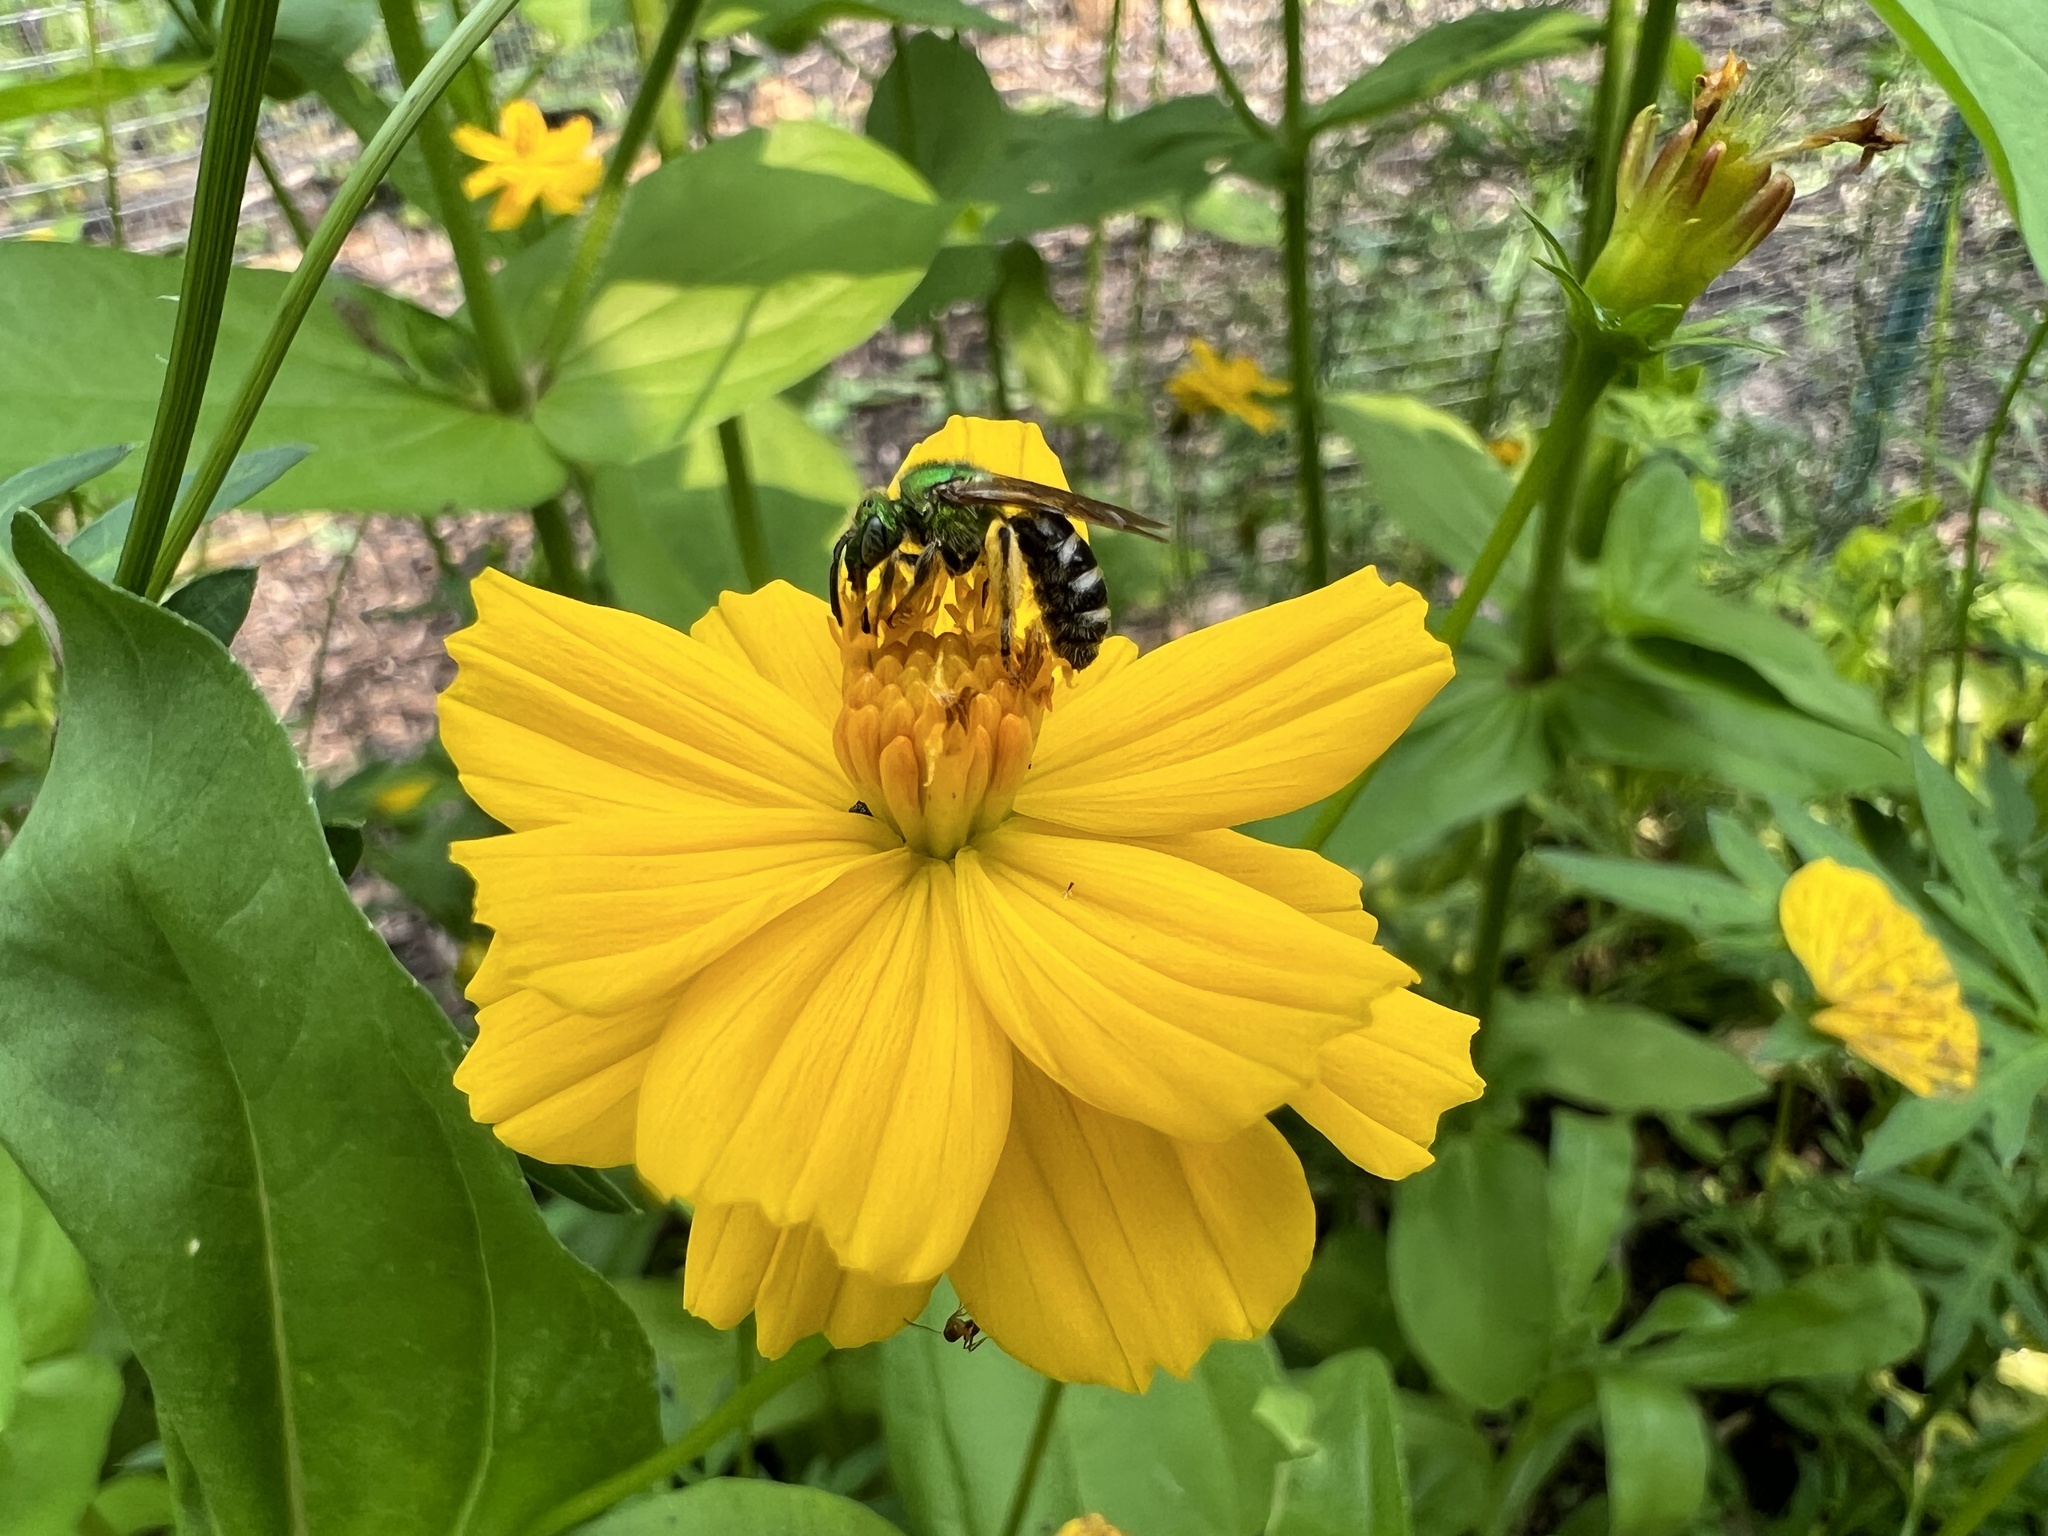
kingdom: Animalia
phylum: Arthropoda
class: Insecta
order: Hymenoptera
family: Halictidae
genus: Agapostemon
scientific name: Agapostemon virescens
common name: Bicolored striped sweat bee
